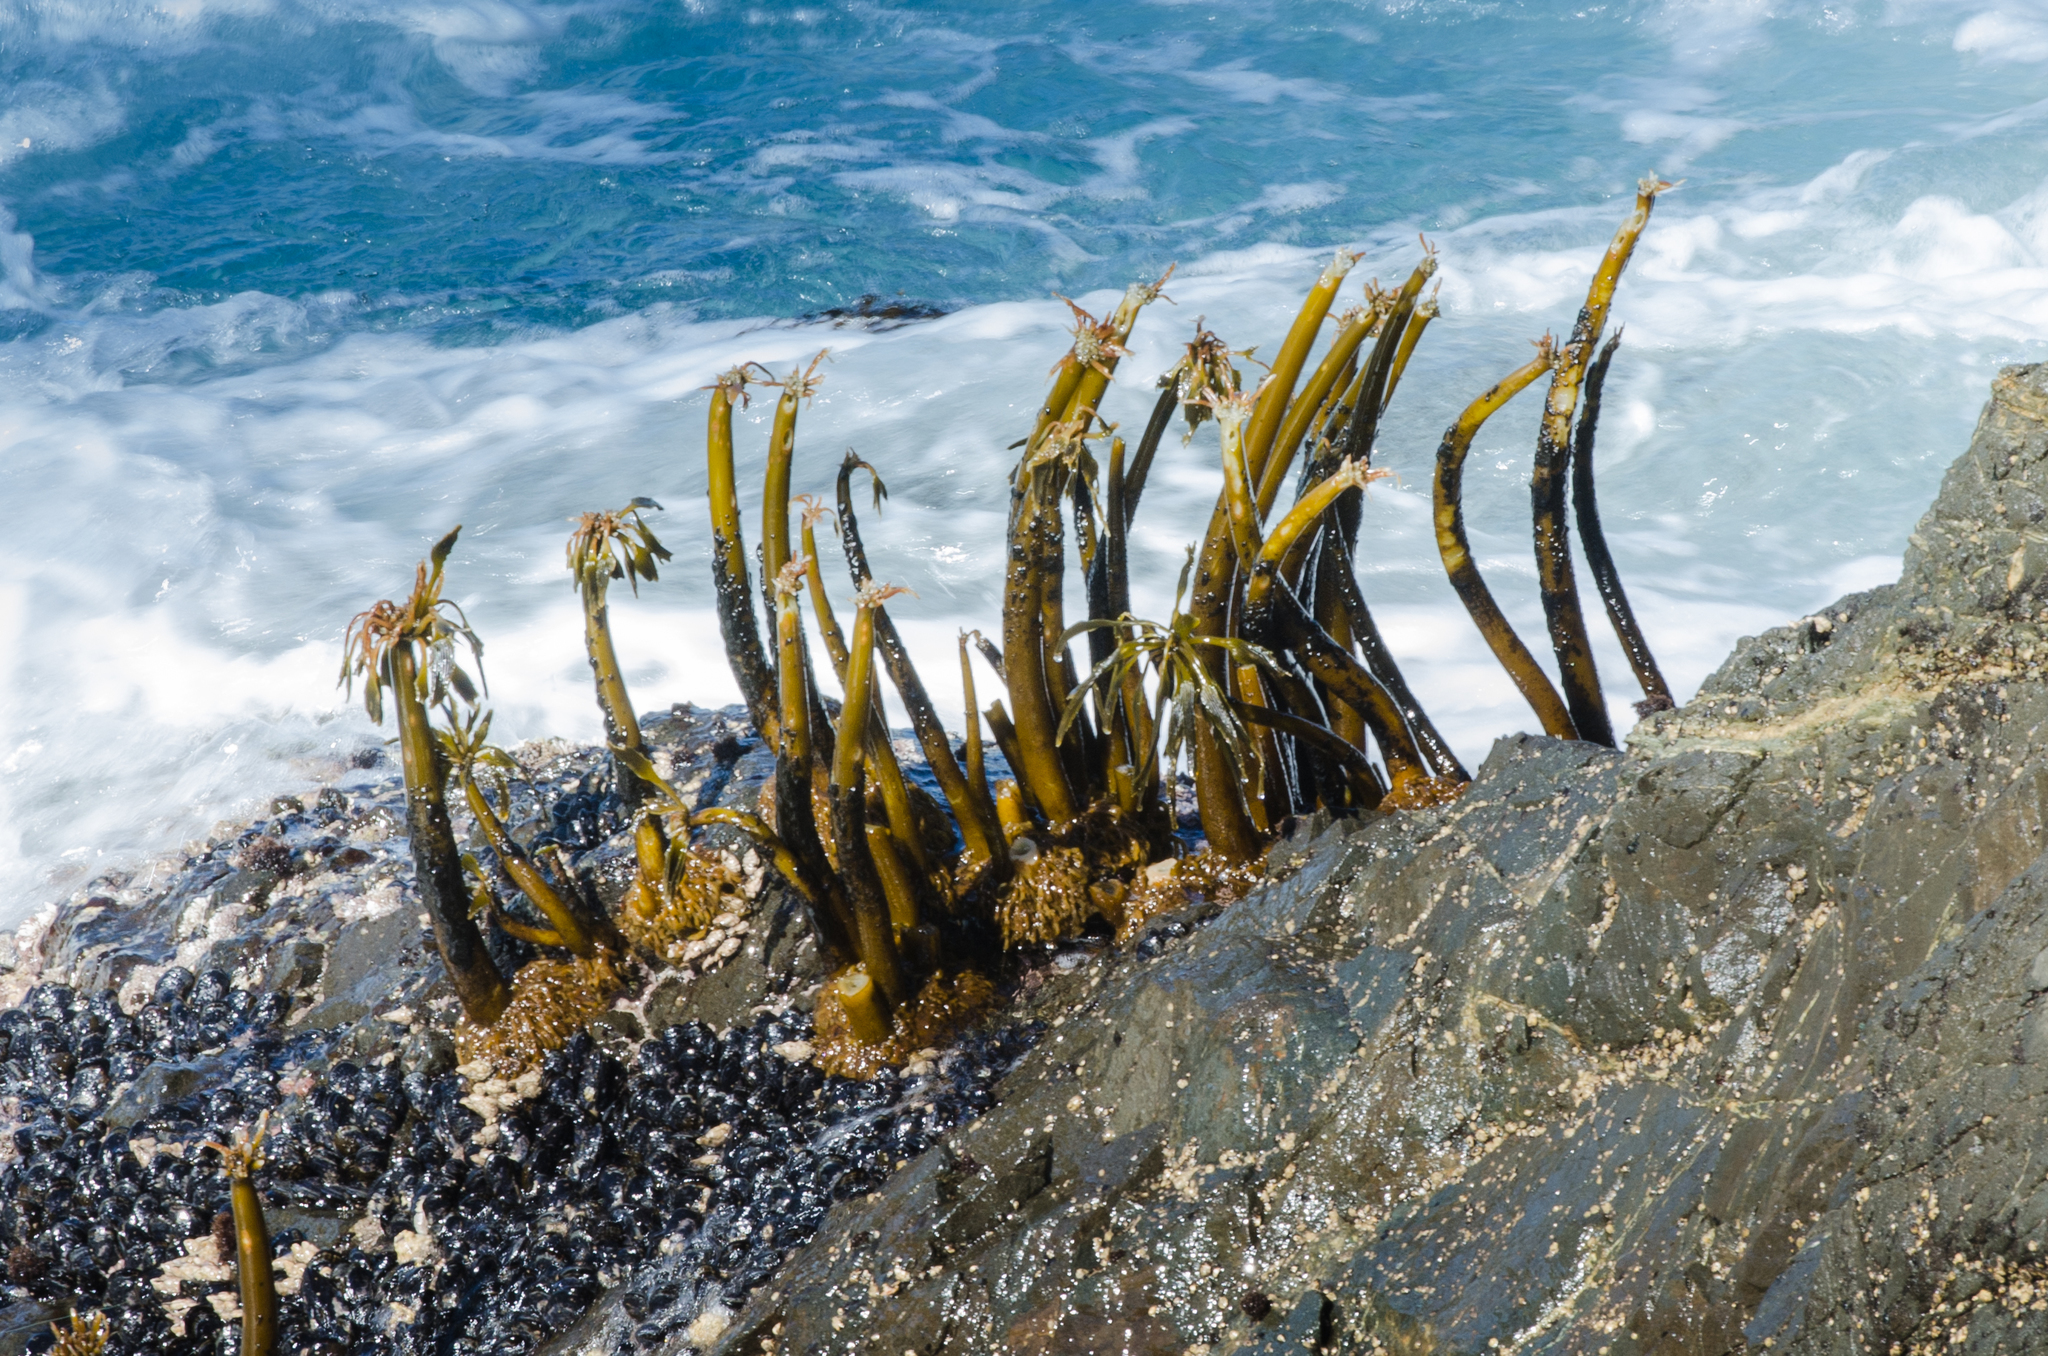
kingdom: Chromista
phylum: Ochrophyta
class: Phaeophyceae
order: Laminariales
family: Laminariaceae
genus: Postelsia
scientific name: Postelsia palmiformis
